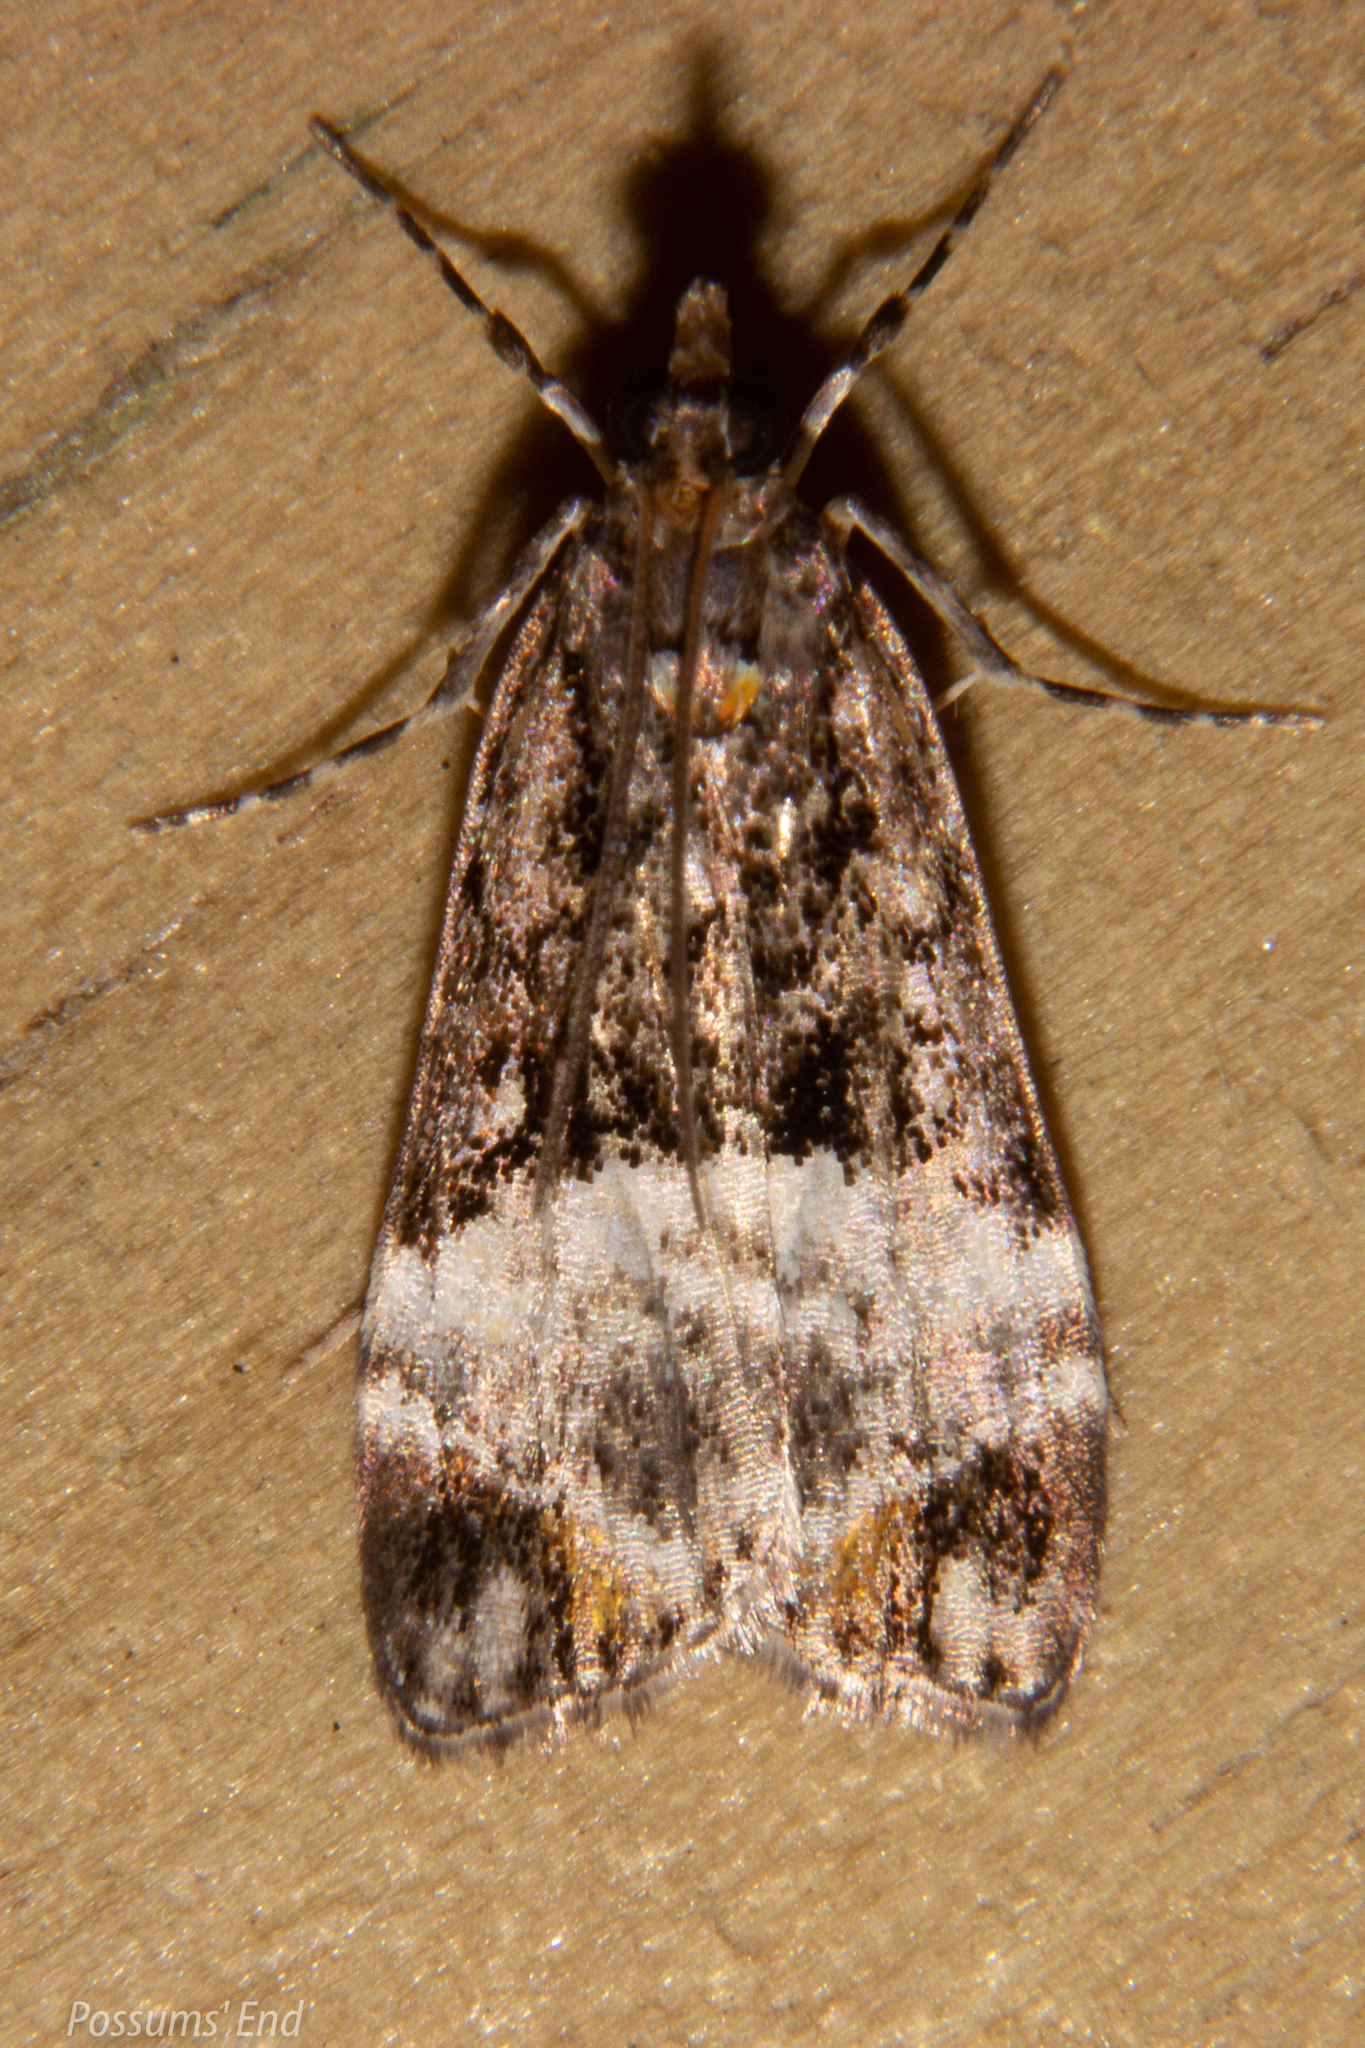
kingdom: Animalia
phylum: Arthropoda
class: Insecta
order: Lepidoptera
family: Crambidae
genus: Scoparia
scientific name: Scoparia minusculalis
